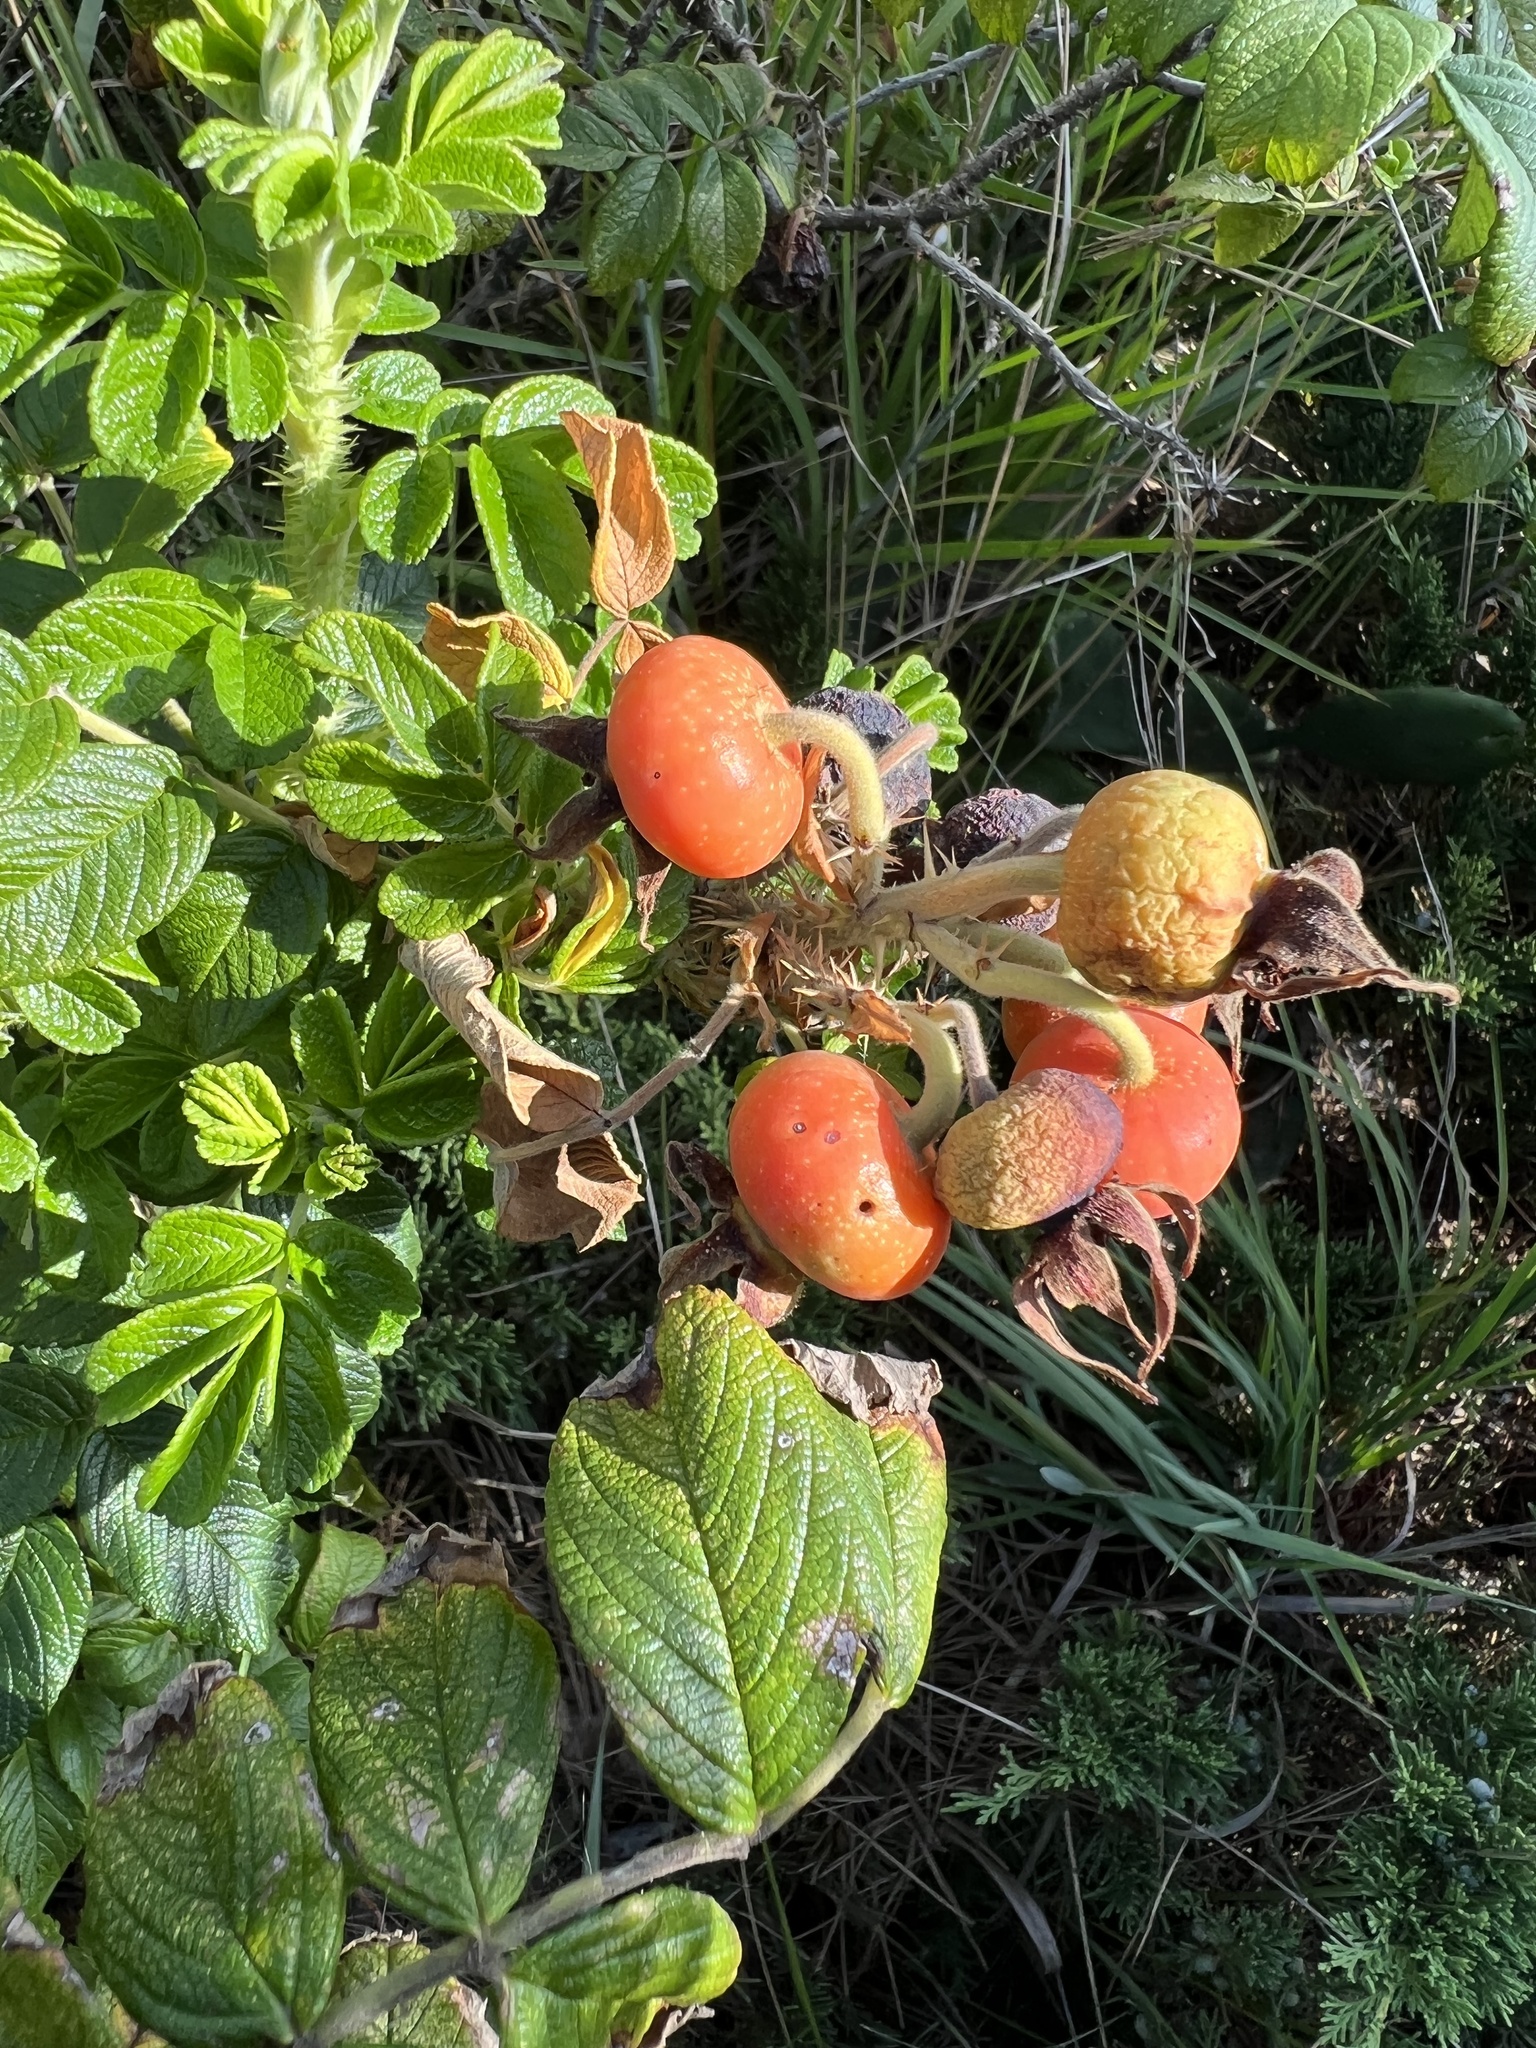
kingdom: Plantae
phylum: Tracheophyta
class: Magnoliopsida
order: Rosales
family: Rosaceae
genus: Rosa
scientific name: Rosa rugosa
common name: Japanese rose
